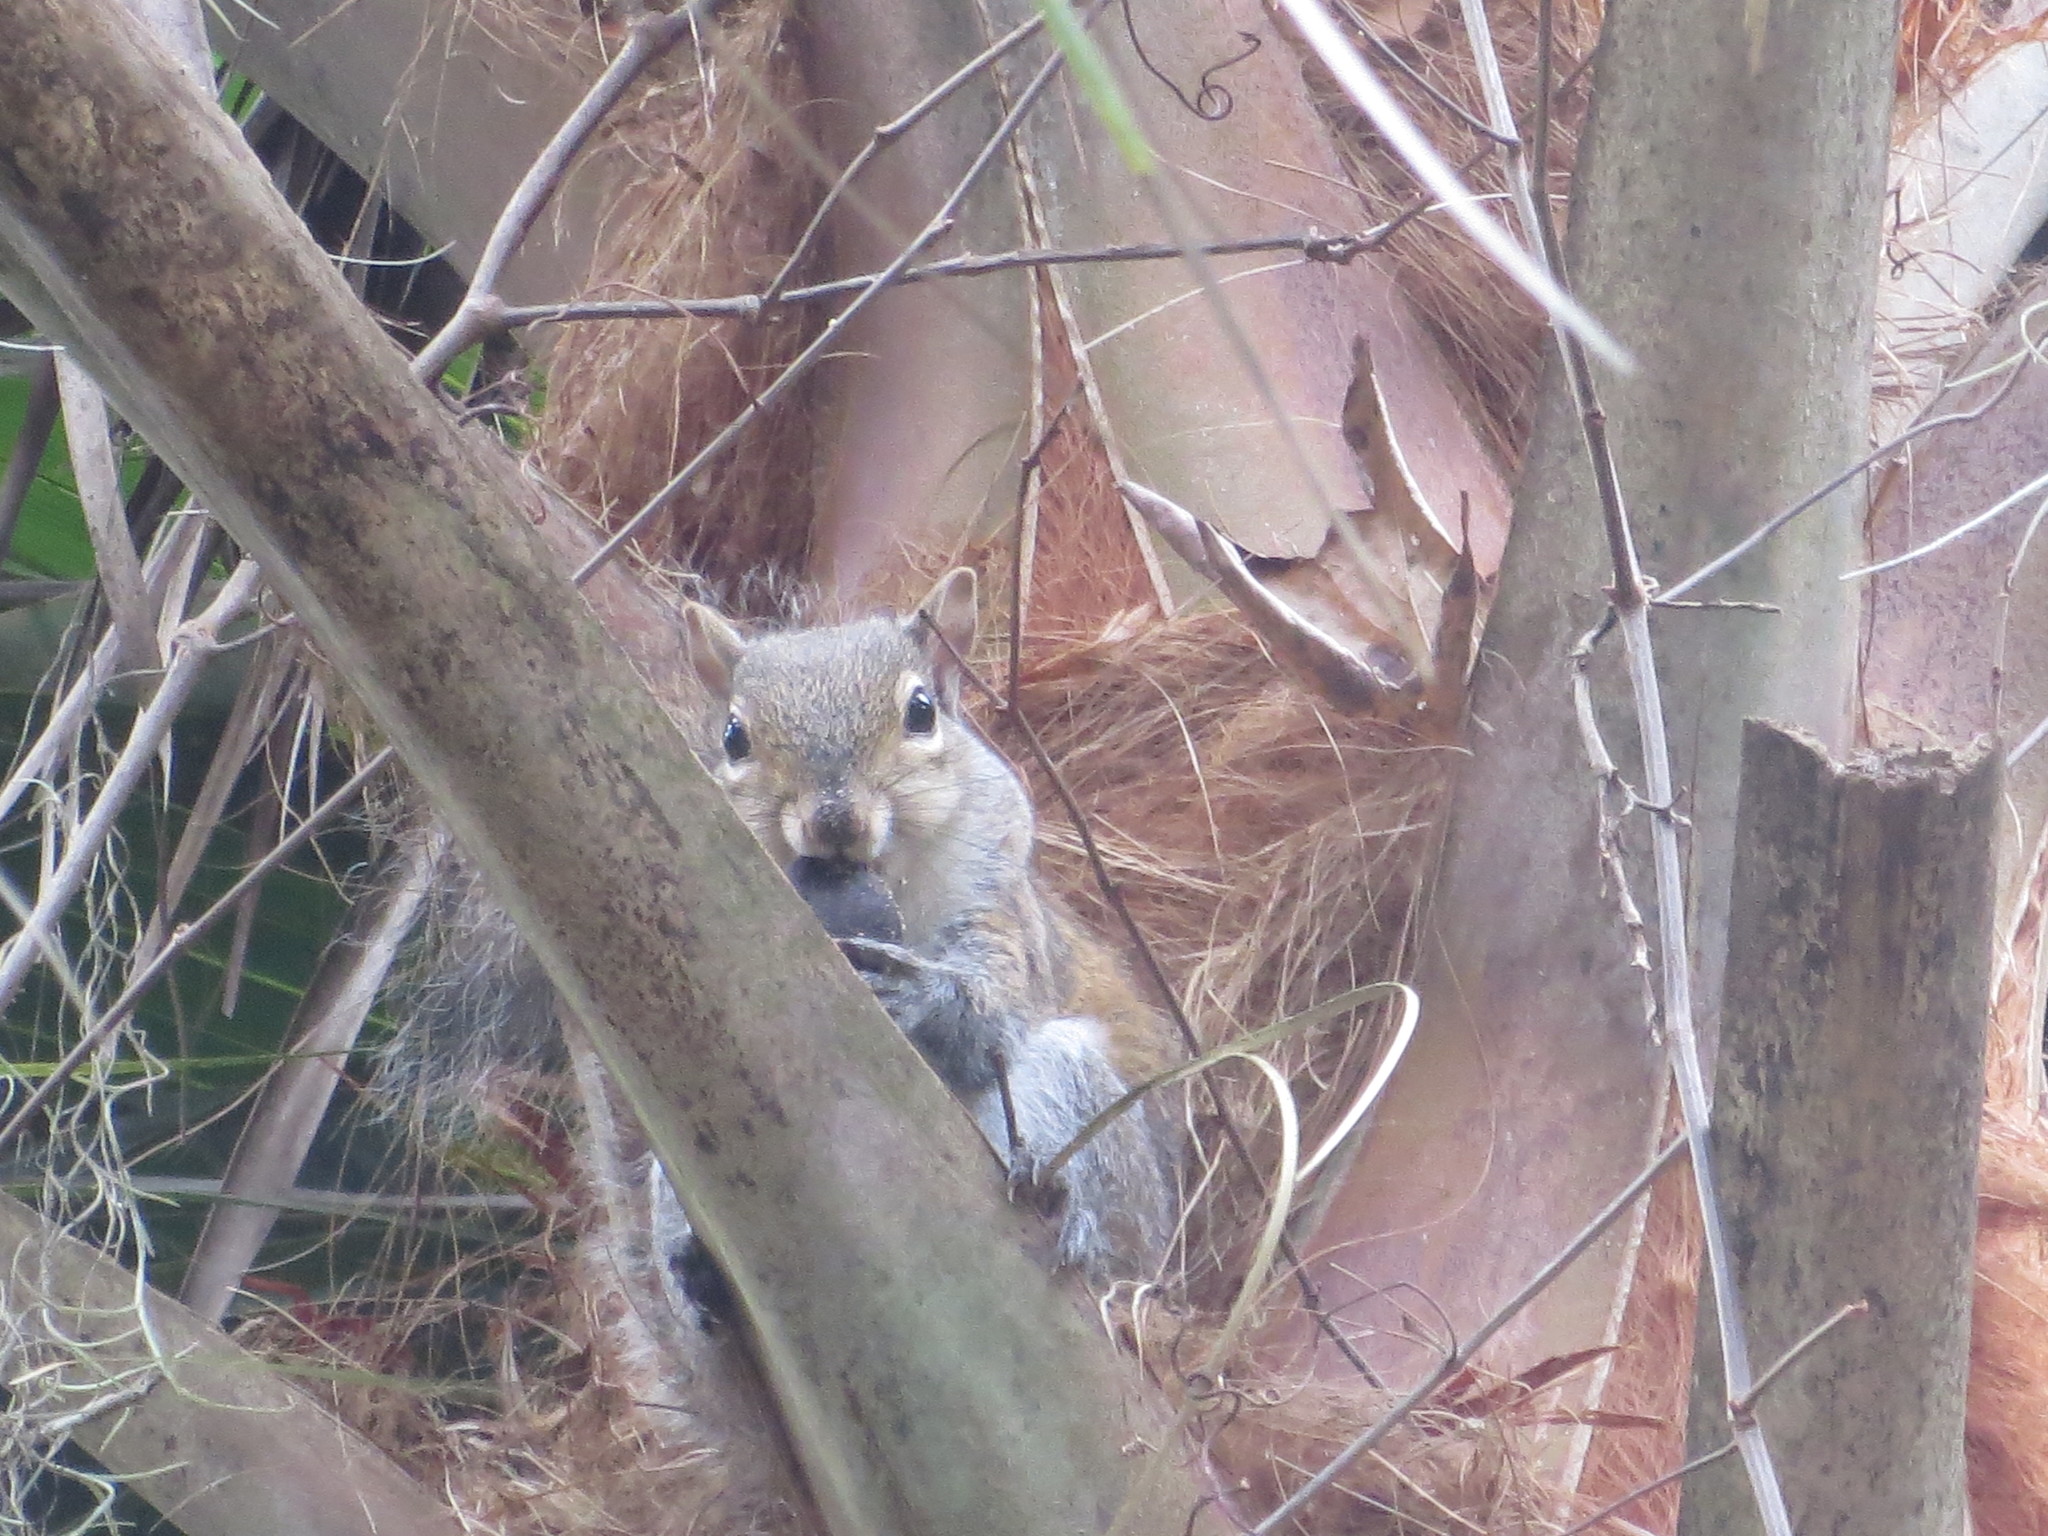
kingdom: Animalia
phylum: Chordata
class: Mammalia
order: Rodentia
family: Sciuridae
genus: Sciurus
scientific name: Sciurus carolinensis
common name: Eastern gray squirrel
